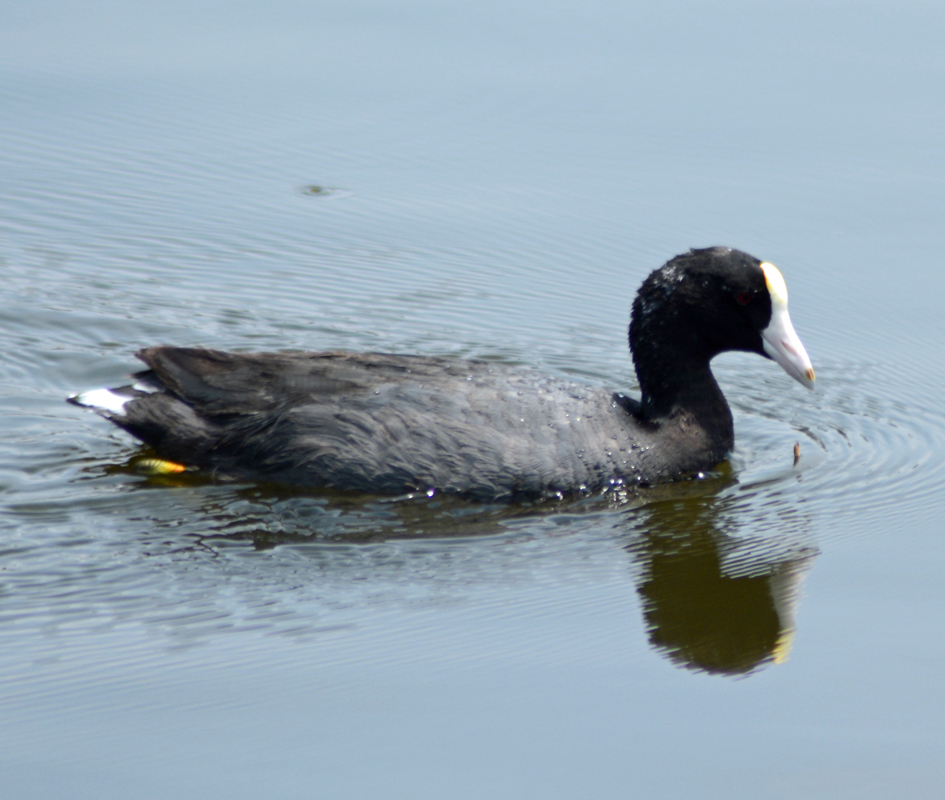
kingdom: Animalia
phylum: Chordata
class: Aves
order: Gruiformes
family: Rallidae
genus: Fulica
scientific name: Fulica americana
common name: American coot
